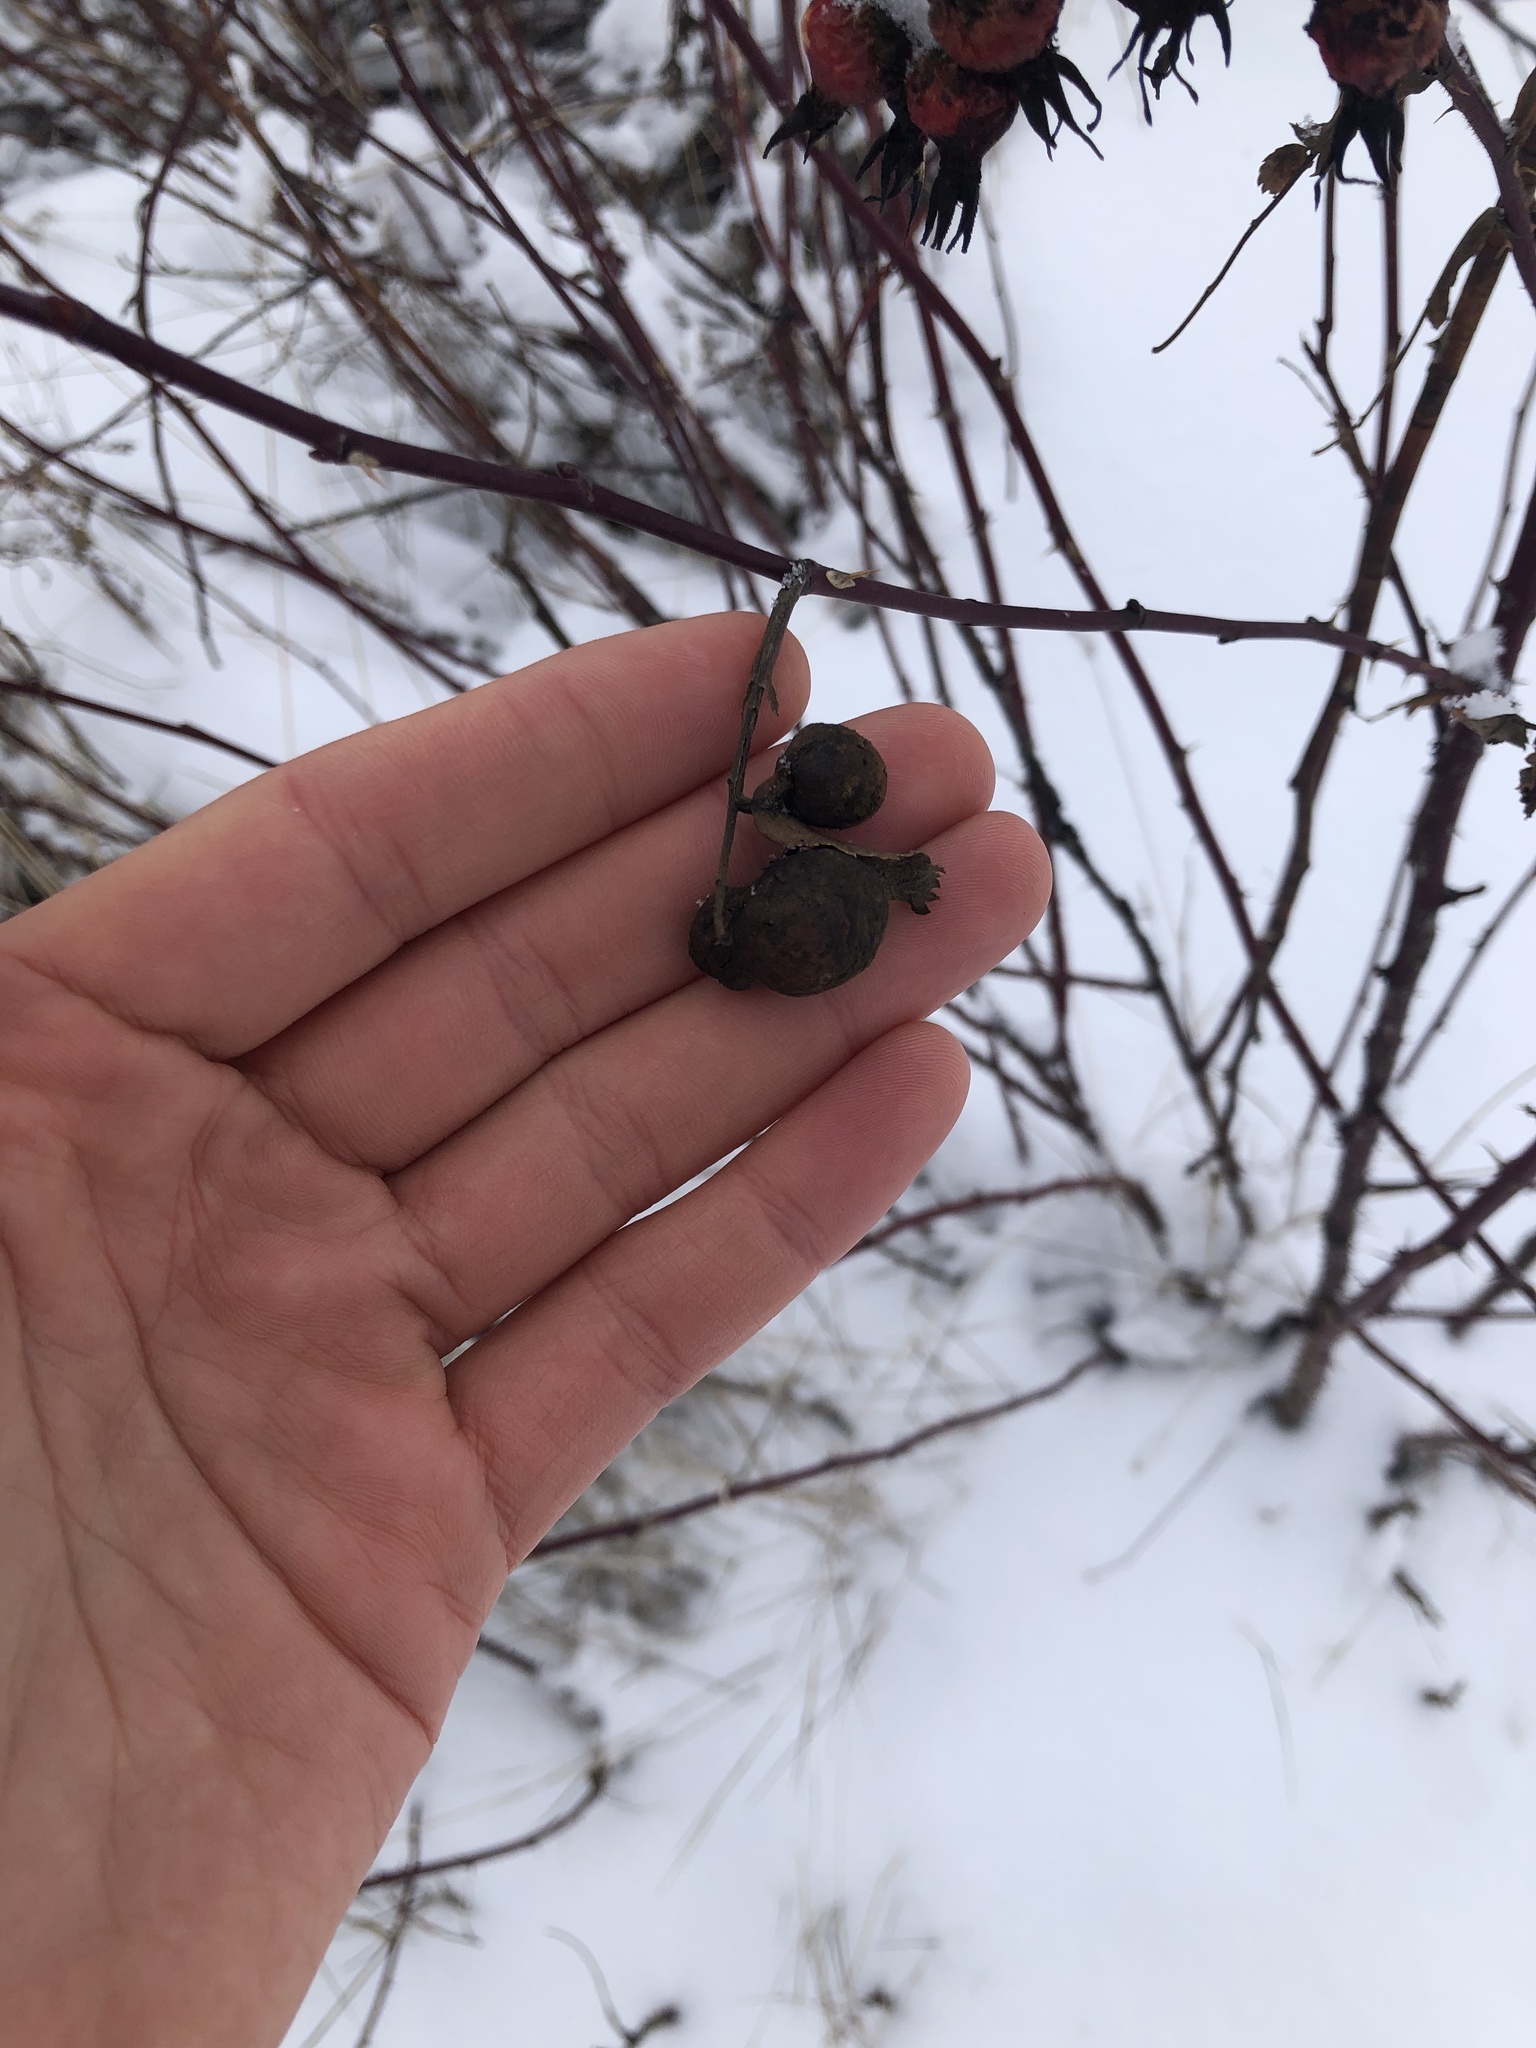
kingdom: Animalia
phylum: Arthropoda
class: Insecta
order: Hymenoptera
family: Cynipidae
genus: Diplolepis
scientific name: Diplolepis variabilis
